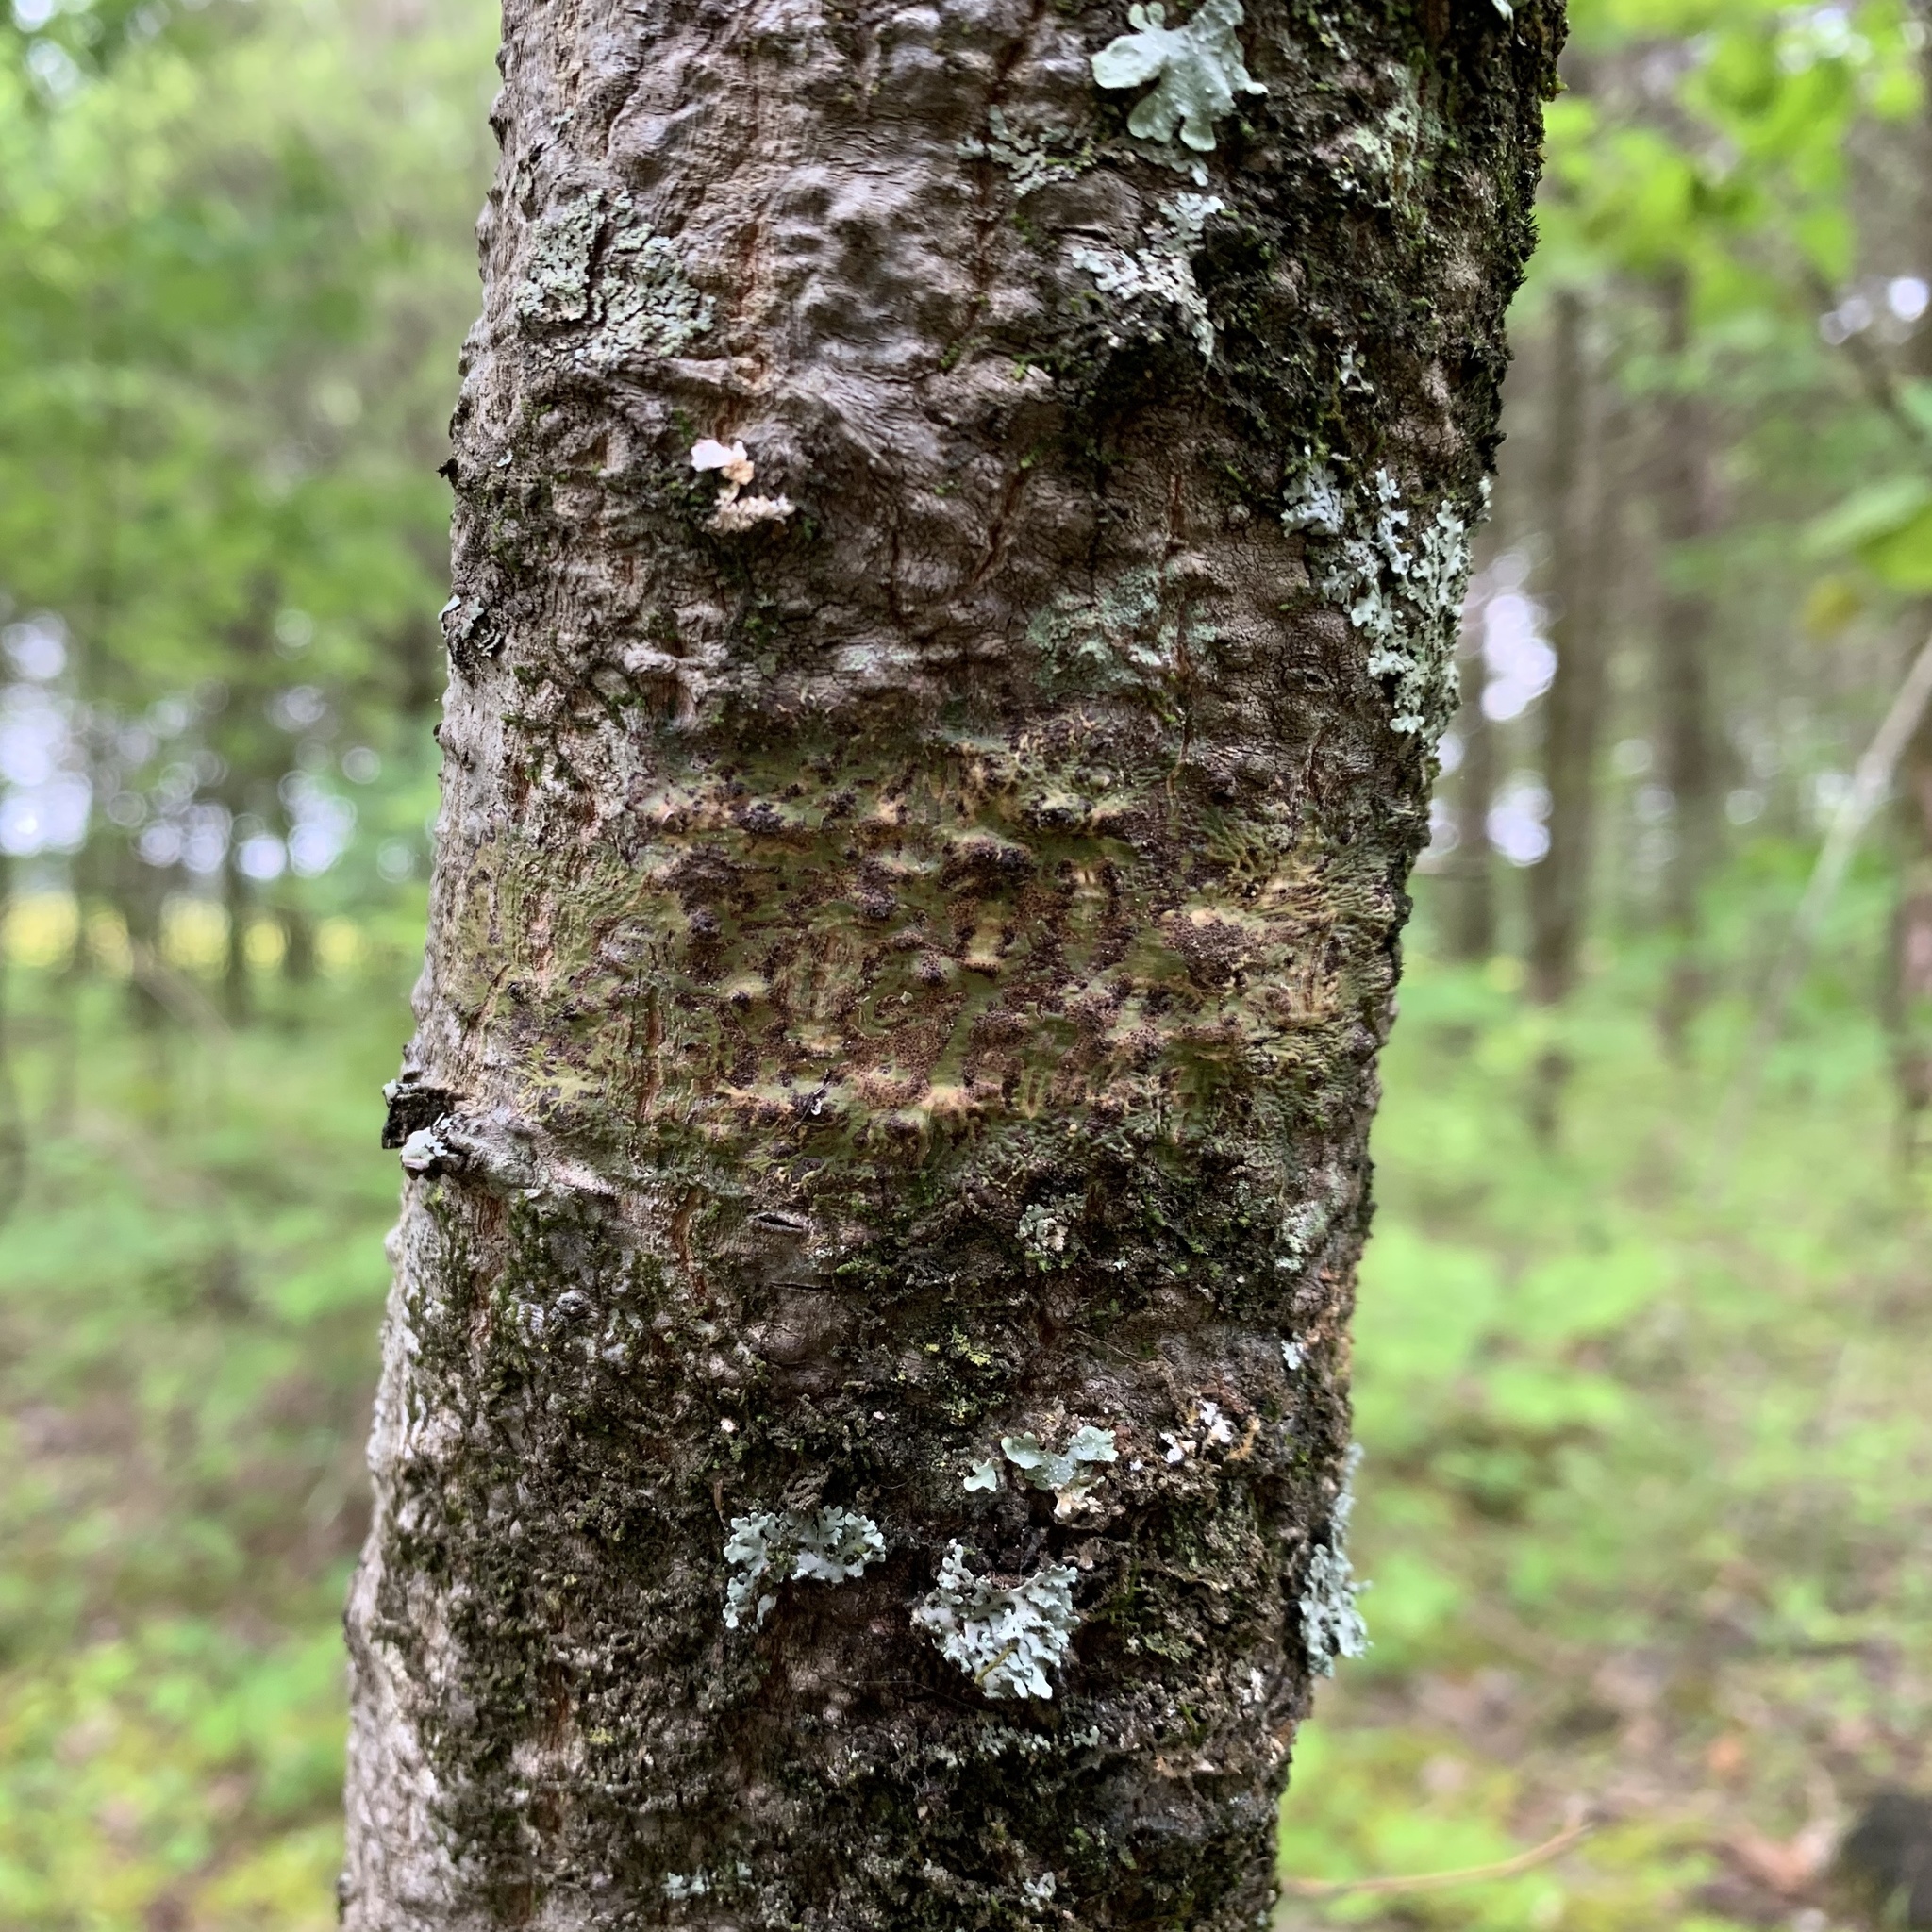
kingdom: Fungi
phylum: Ascomycota
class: Dothideomycetes
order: Trypetheliales
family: Trypetheliaceae
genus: Viridothelium
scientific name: Viridothelium virens
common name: Speckled blister lichen
